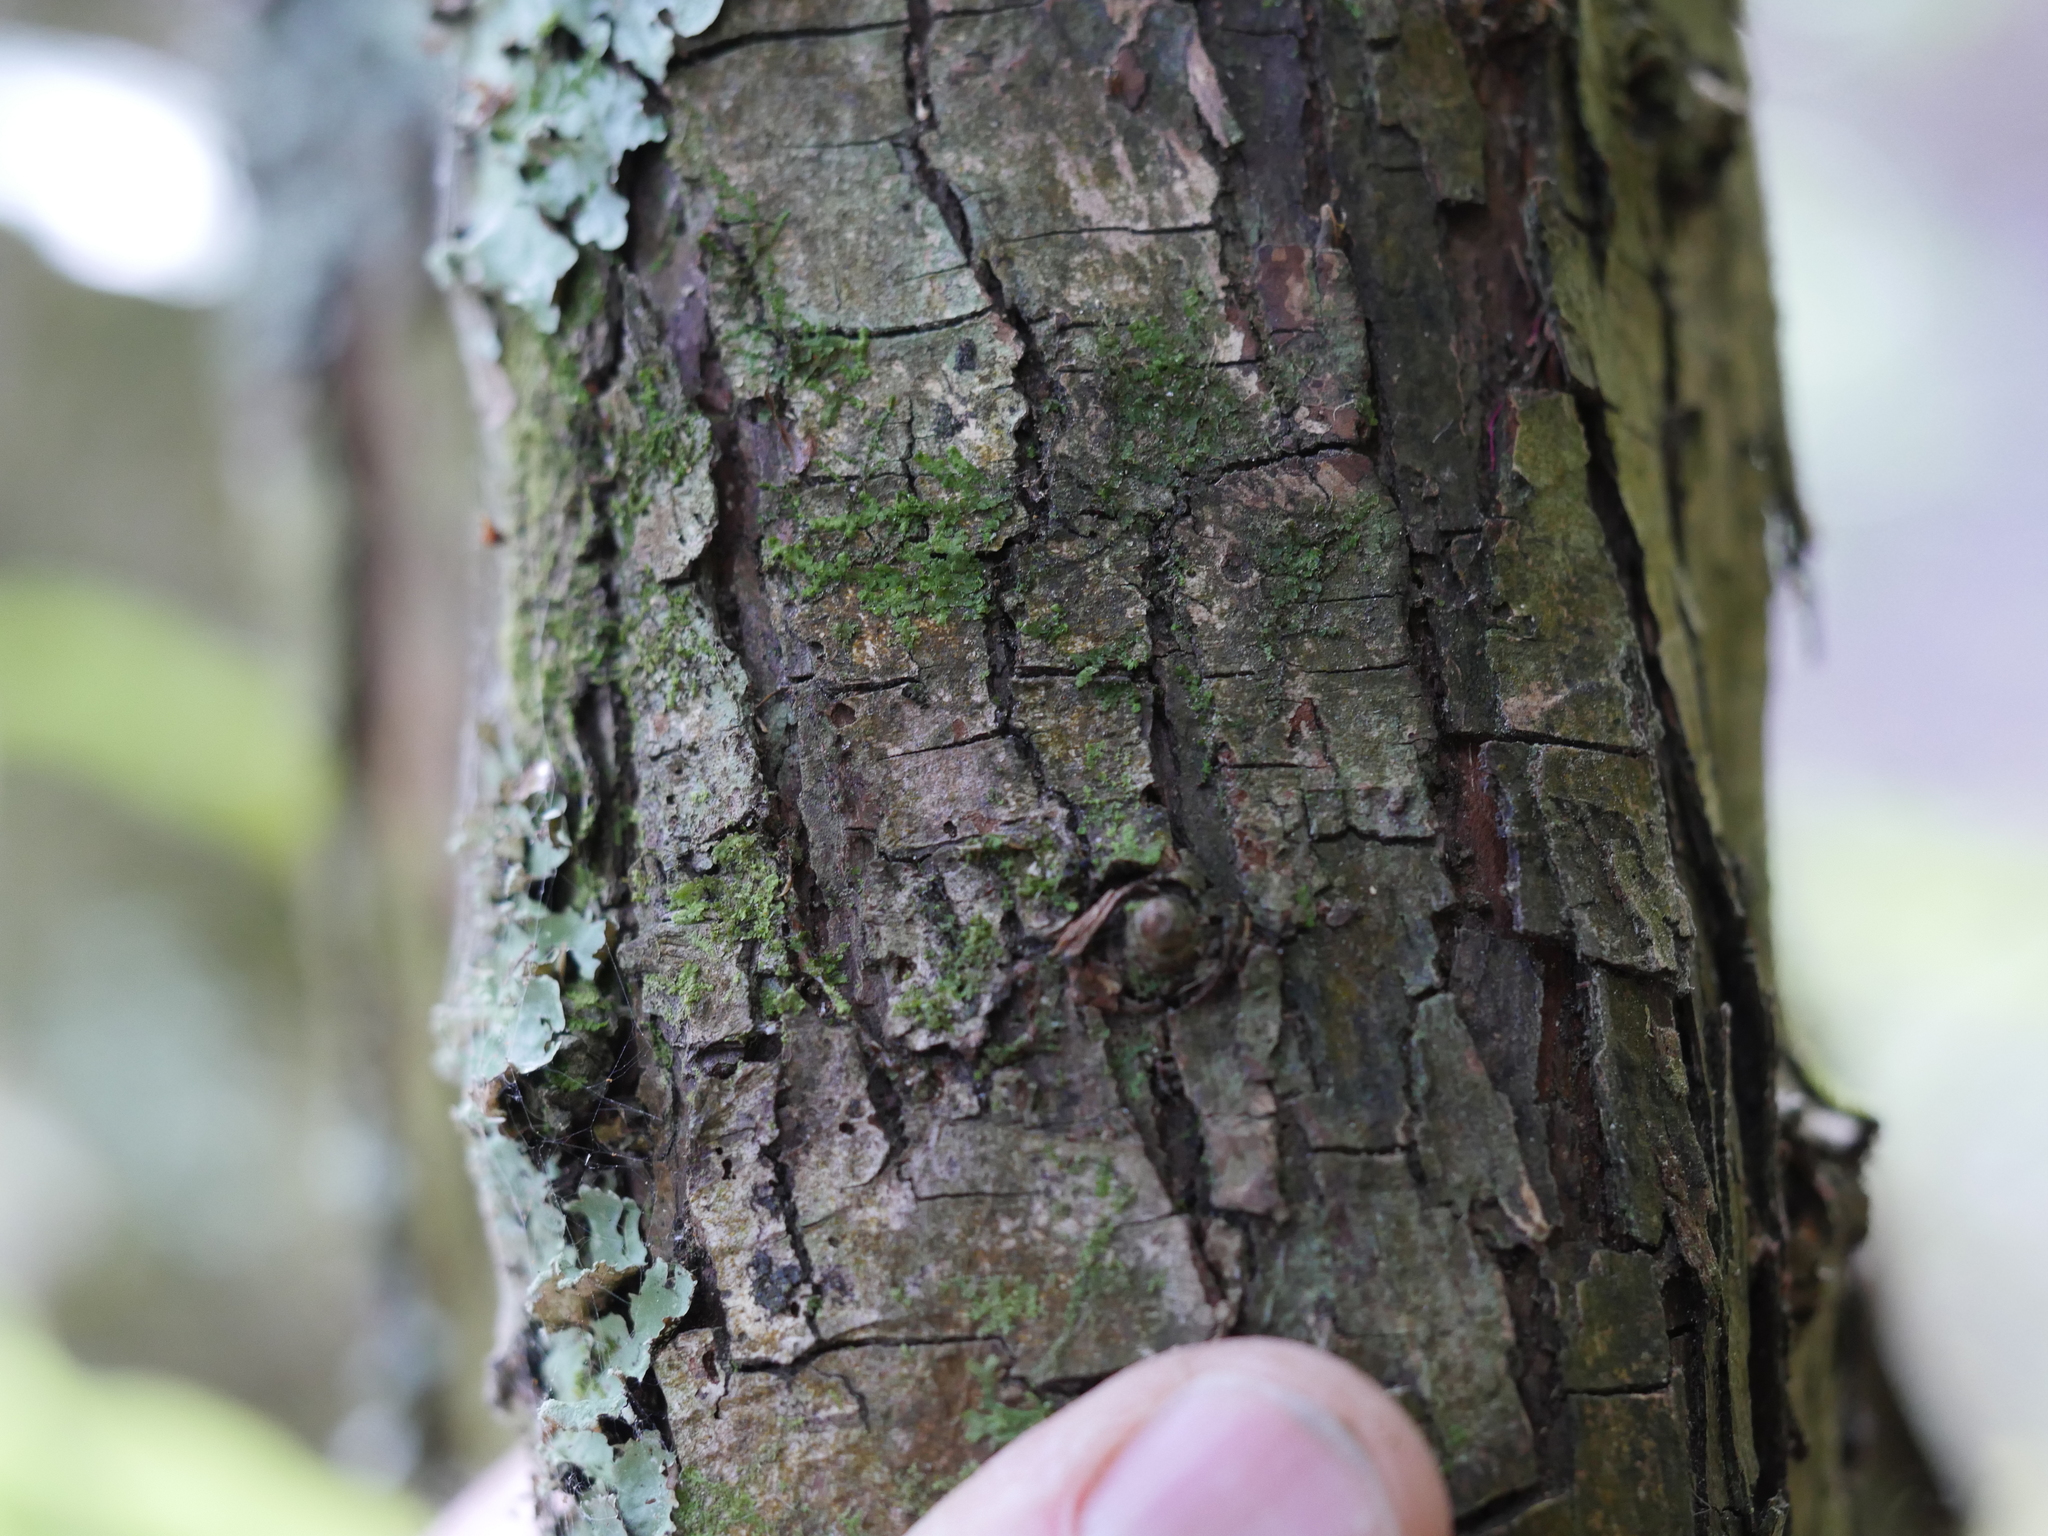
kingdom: Plantae
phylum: Tracheophyta
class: Magnoliopsida
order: Rosales
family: Rosaceae
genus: Crataegus
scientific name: Crataegus monogyna
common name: Hawthorn
